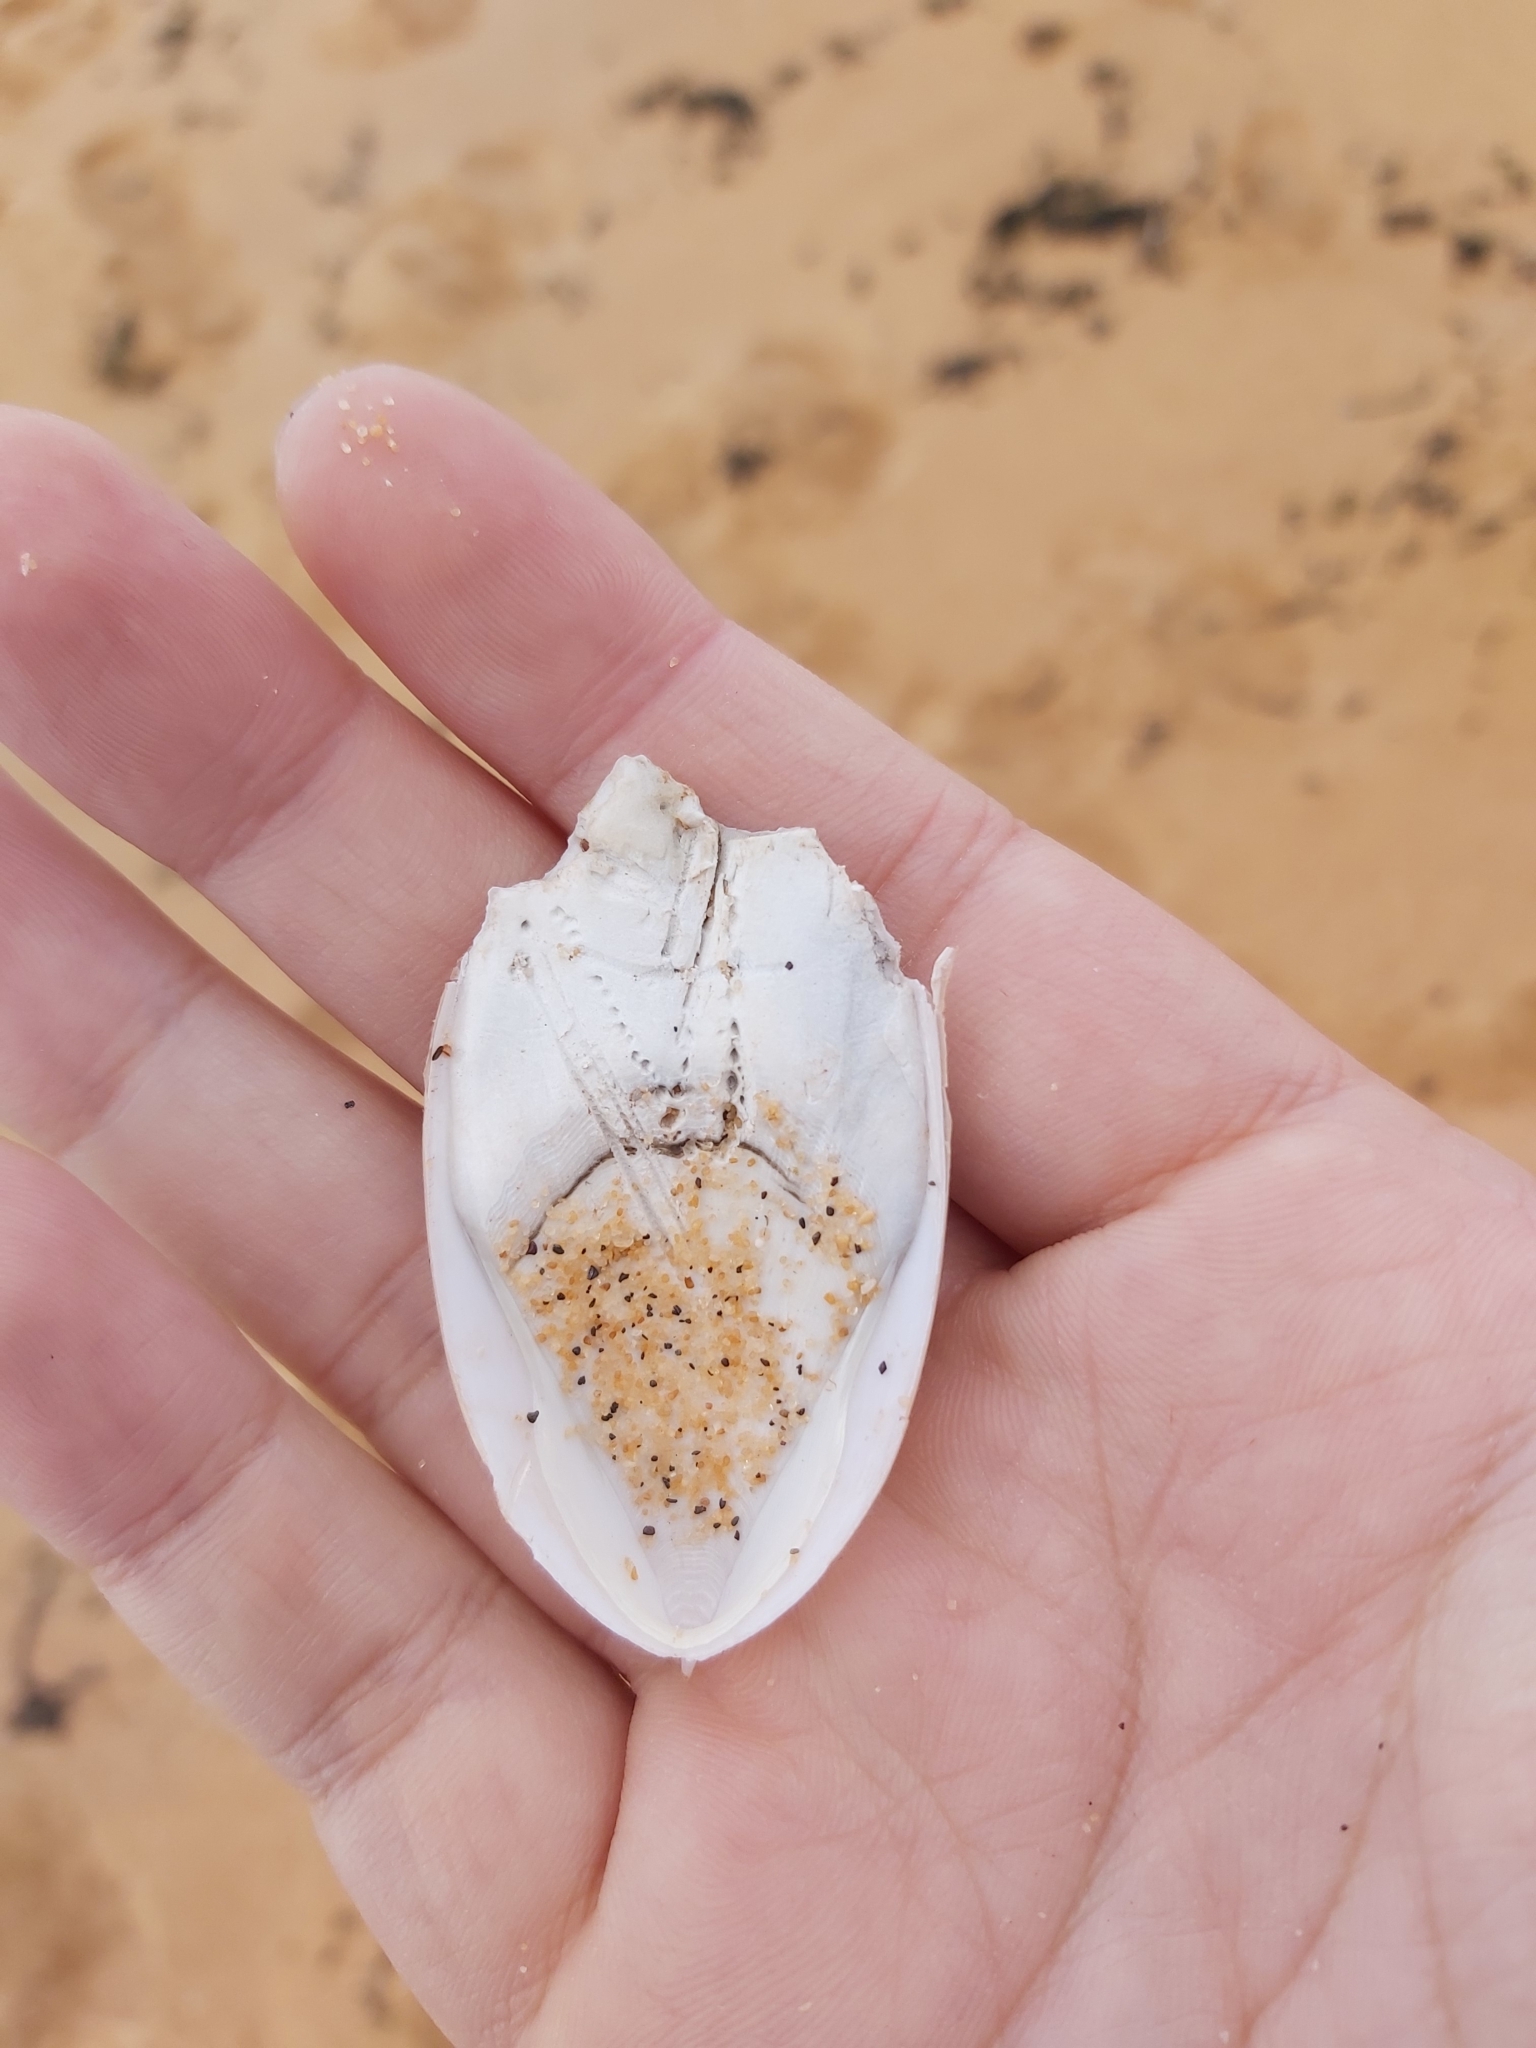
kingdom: Animalia
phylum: Mollusca
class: Cephalopoda
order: Sepiida
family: Sepiidae
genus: Ascarosepion
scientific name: Ascarosepion mestus
